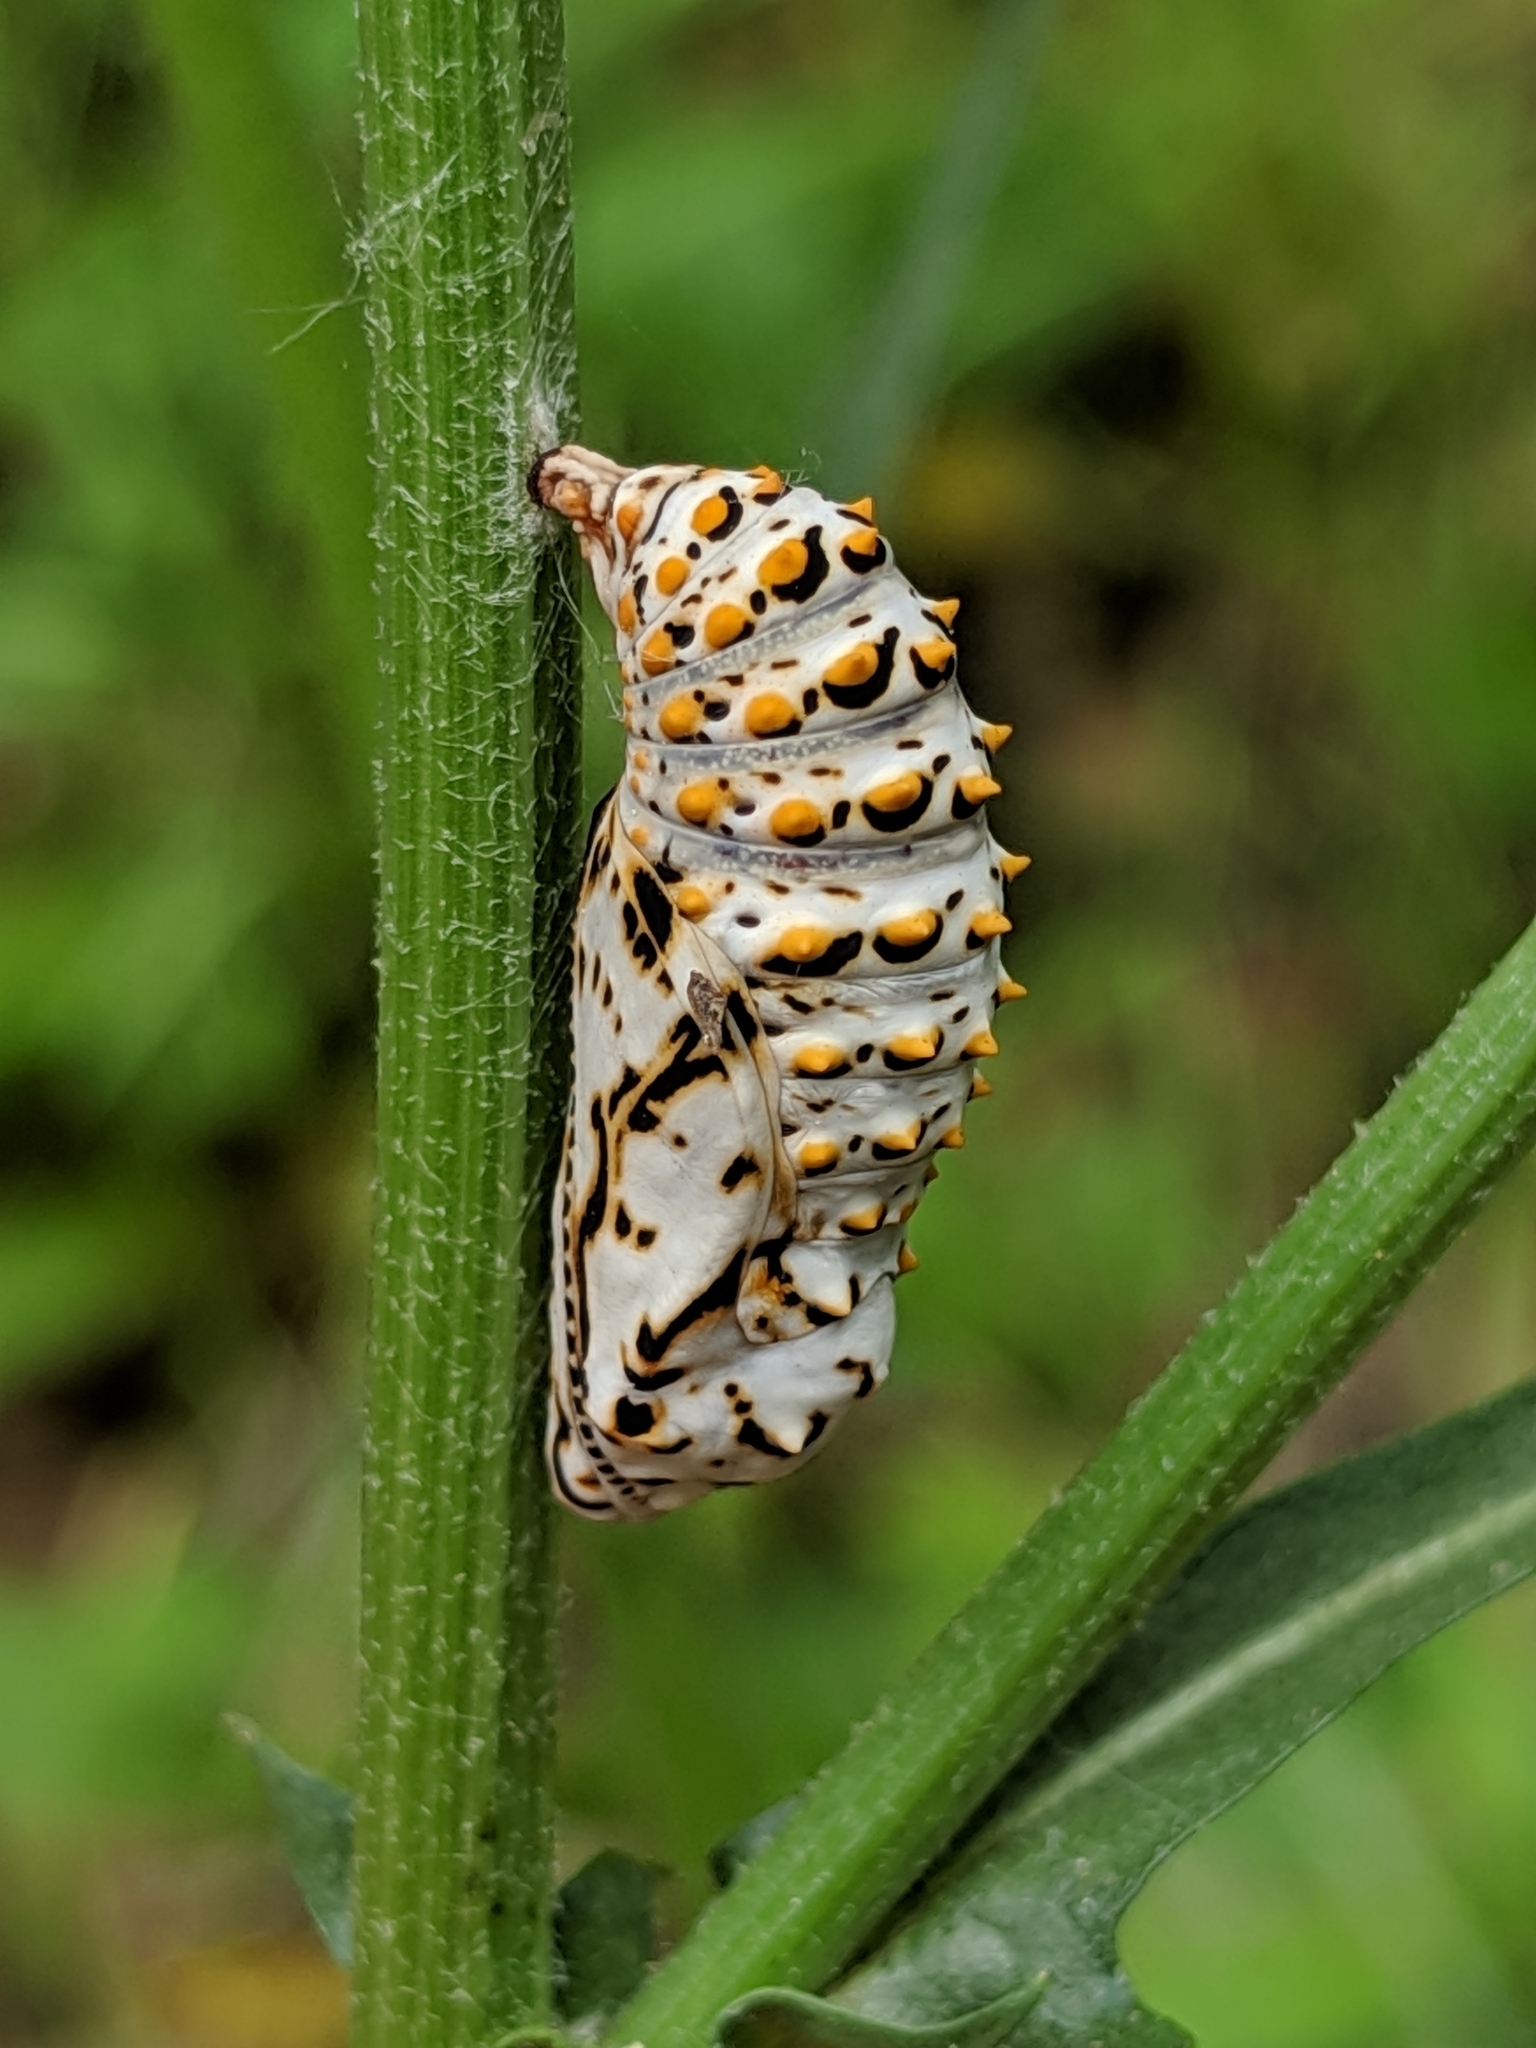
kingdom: Animalia
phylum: Arthropoda
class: Insecta
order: Lepidoptera
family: Nymphalidae
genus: Occidryas
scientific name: Occidryas chalcedona
